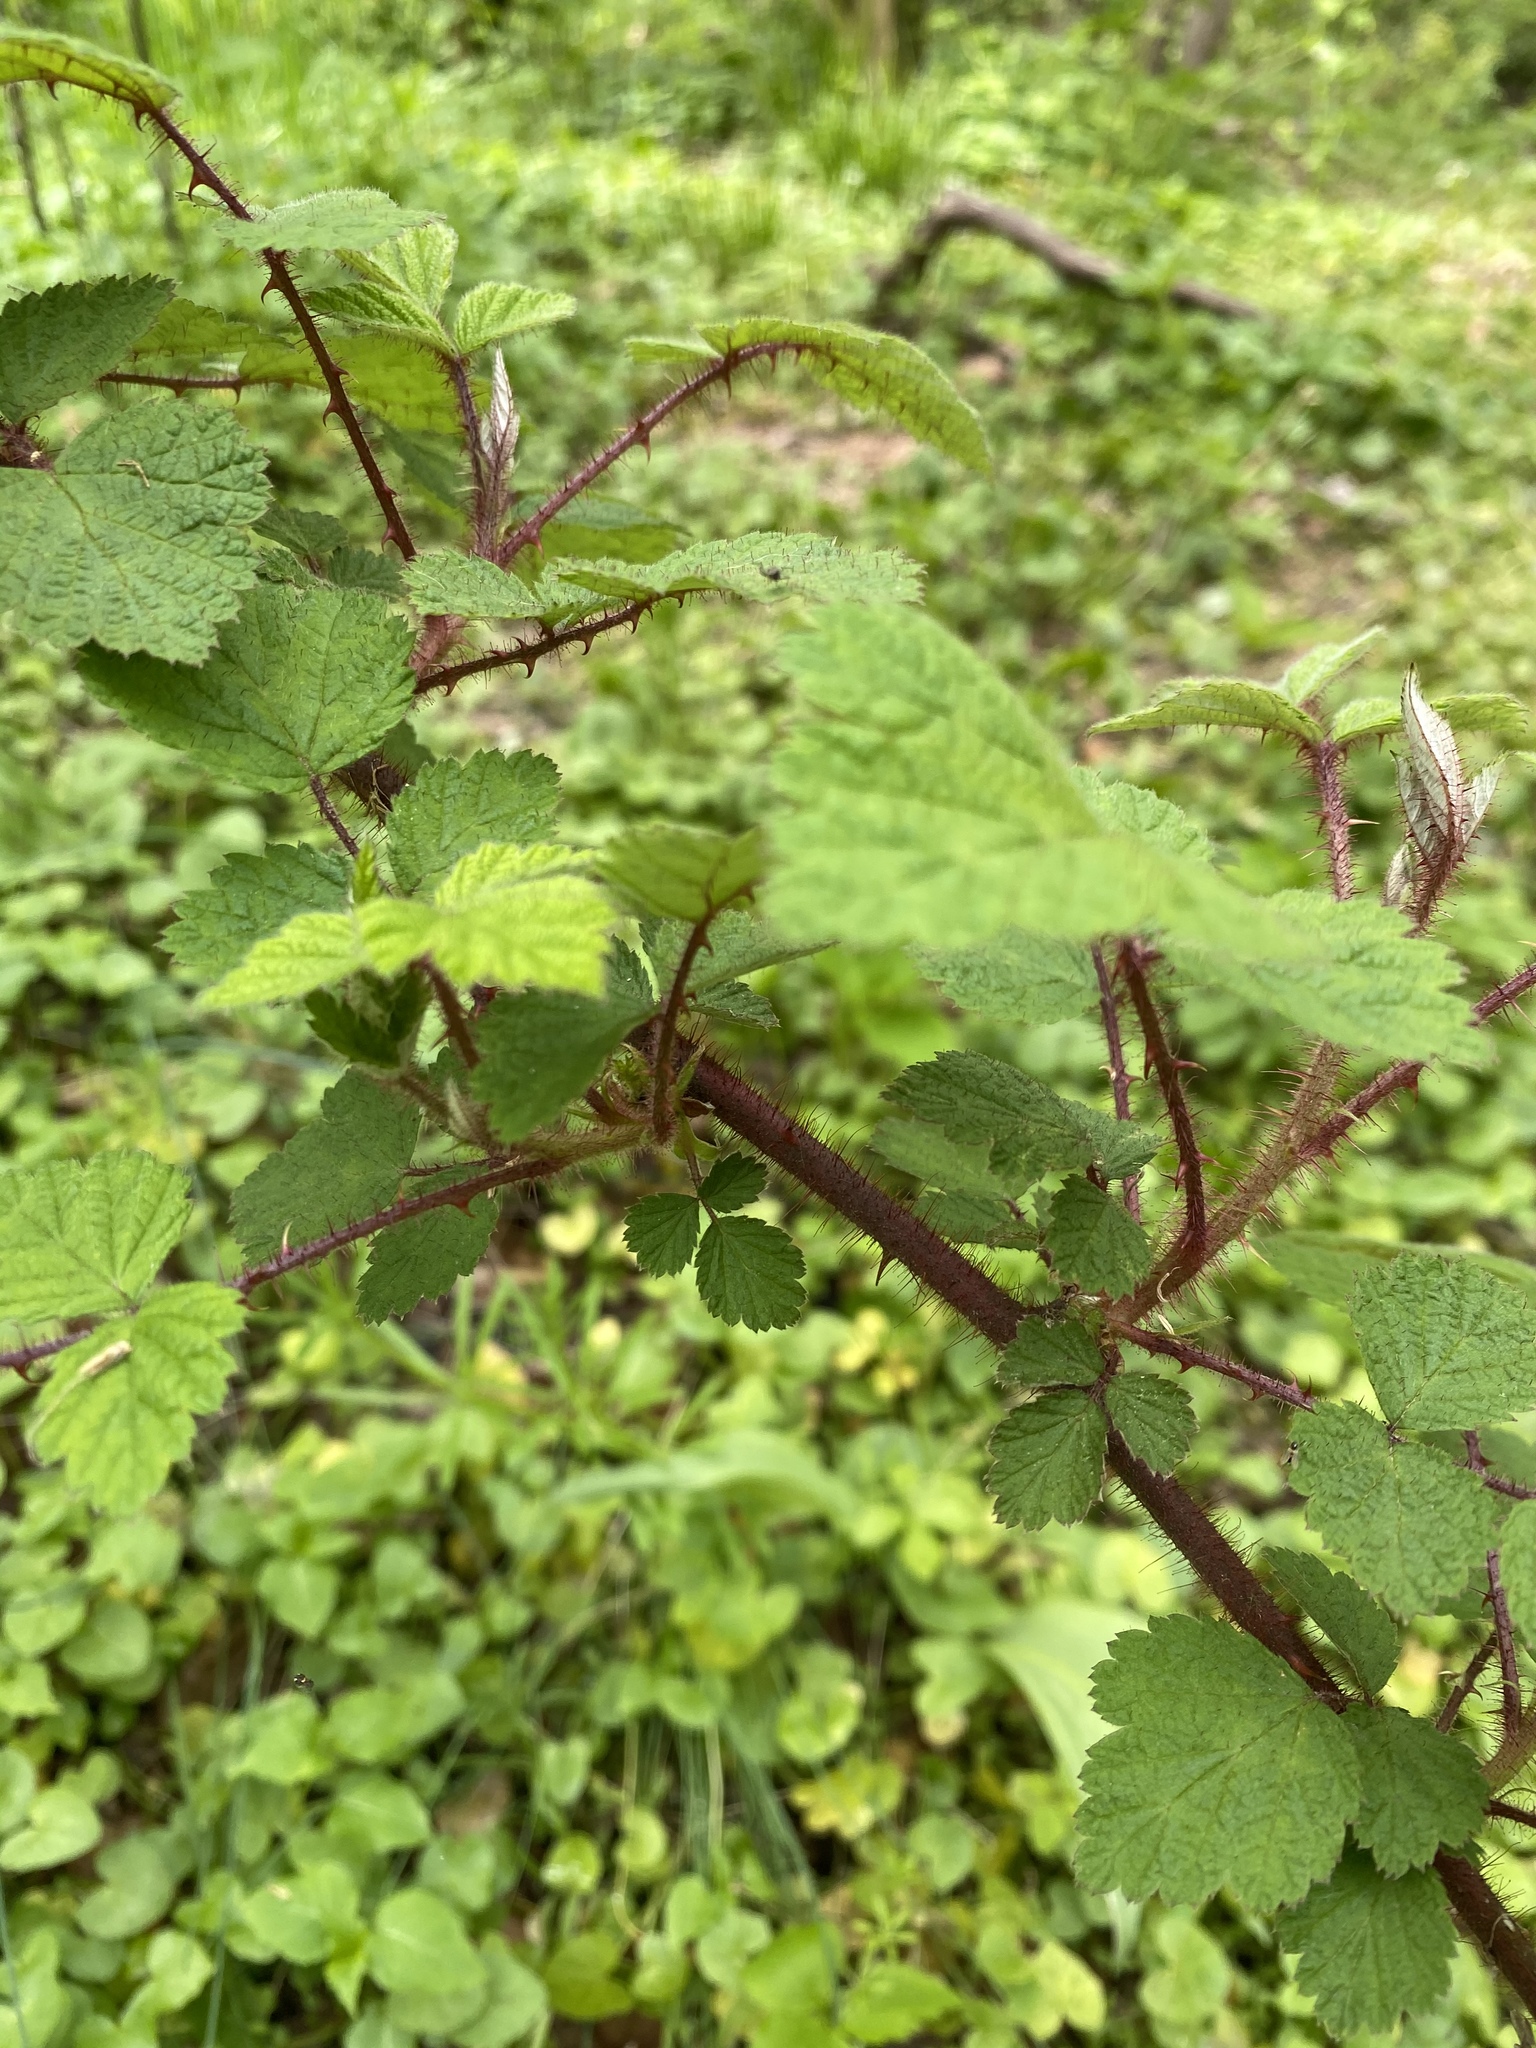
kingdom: Plantae
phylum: Tracheophyta
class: Magnoliopsida
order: Rosales
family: Rosaceae
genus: Rubus
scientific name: Rubus phoenicolasius
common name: Japanese wineberry
